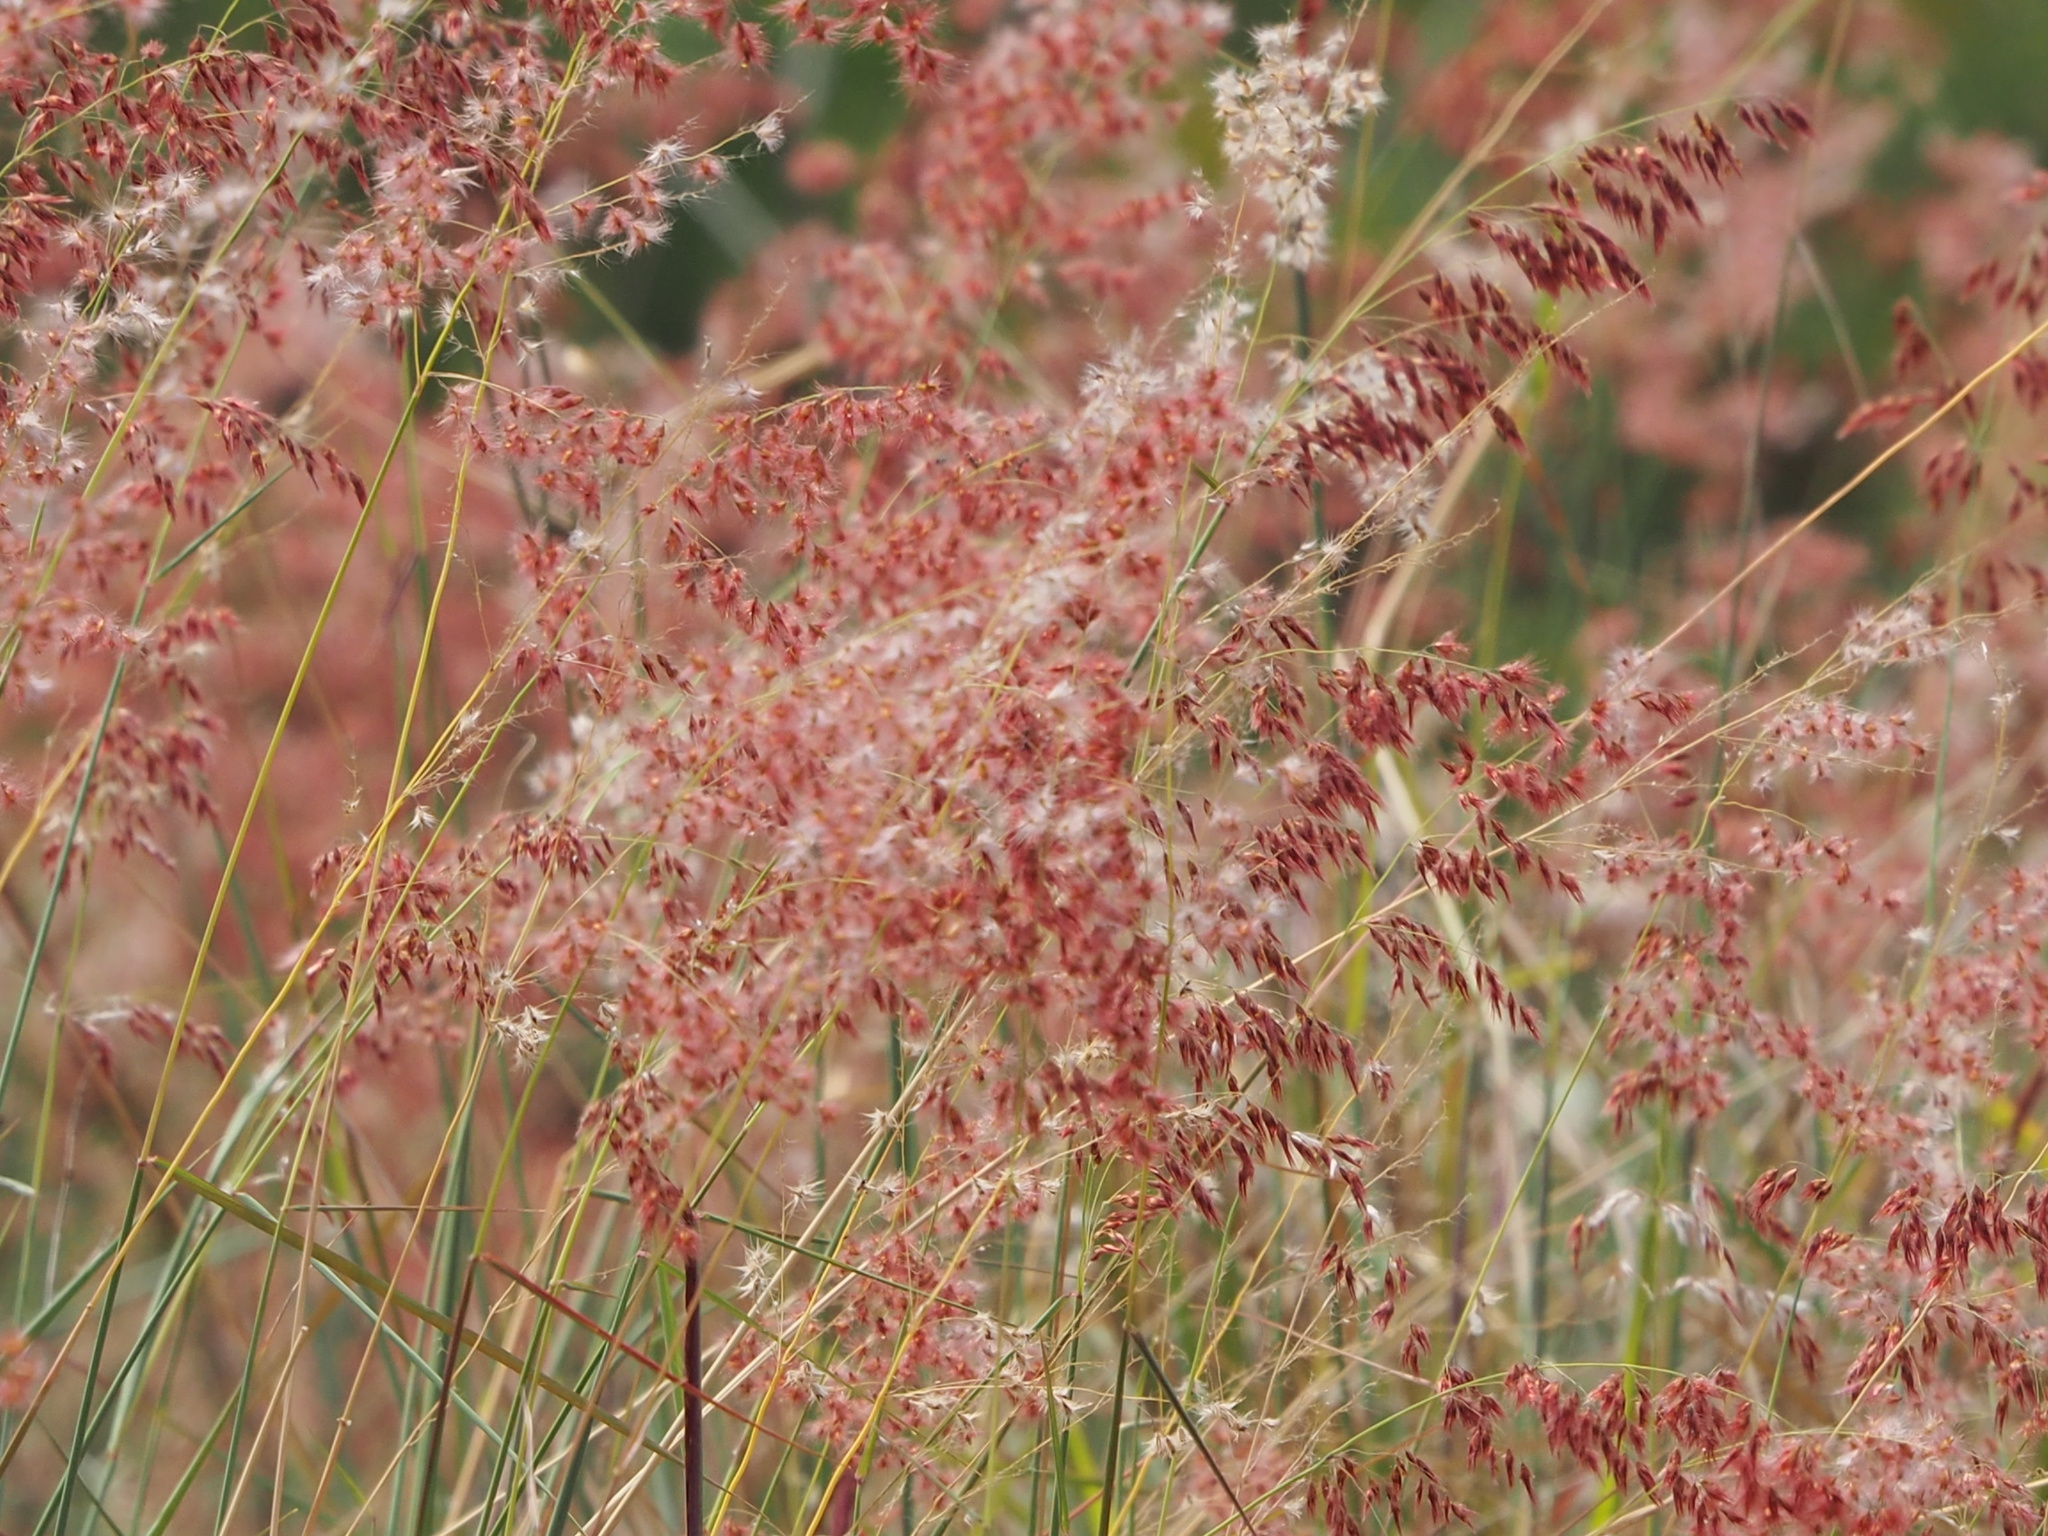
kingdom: Plantae
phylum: Tracheophyta
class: Liliopsida
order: Poales
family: Poaceae
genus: Melinis
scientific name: Melinis repens
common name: Rose natal grass
